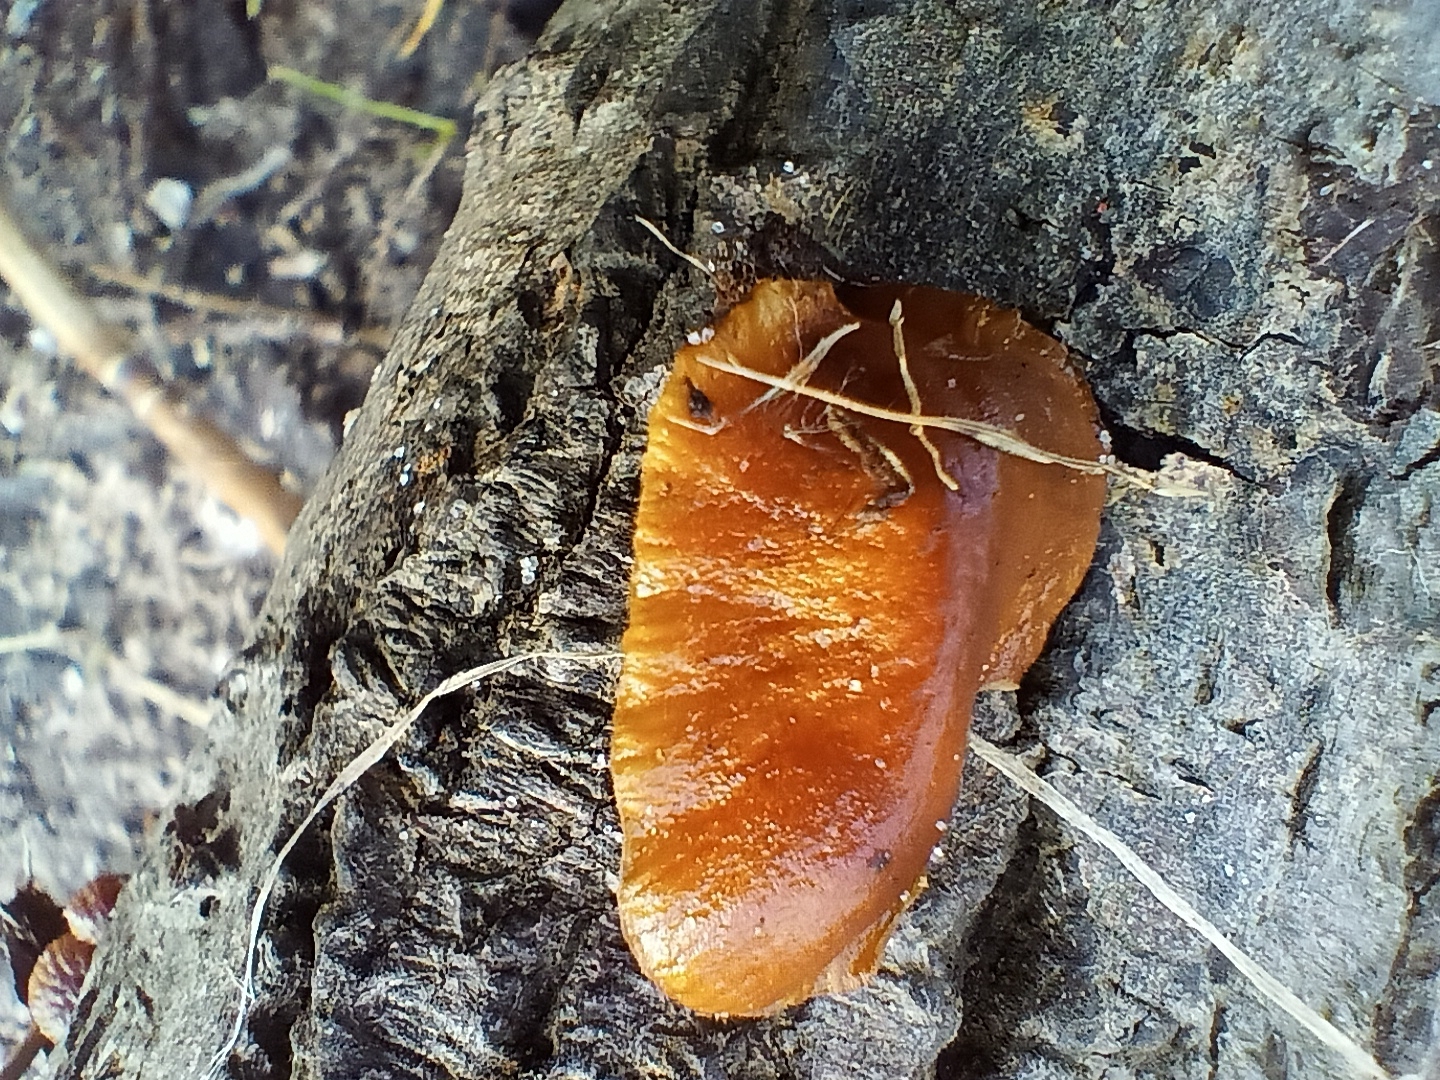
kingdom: Fungi
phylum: Basidiomycota
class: Agaricomycetes
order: Agaricales
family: Physalacriaceae
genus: Flammulina
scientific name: Flammulina
